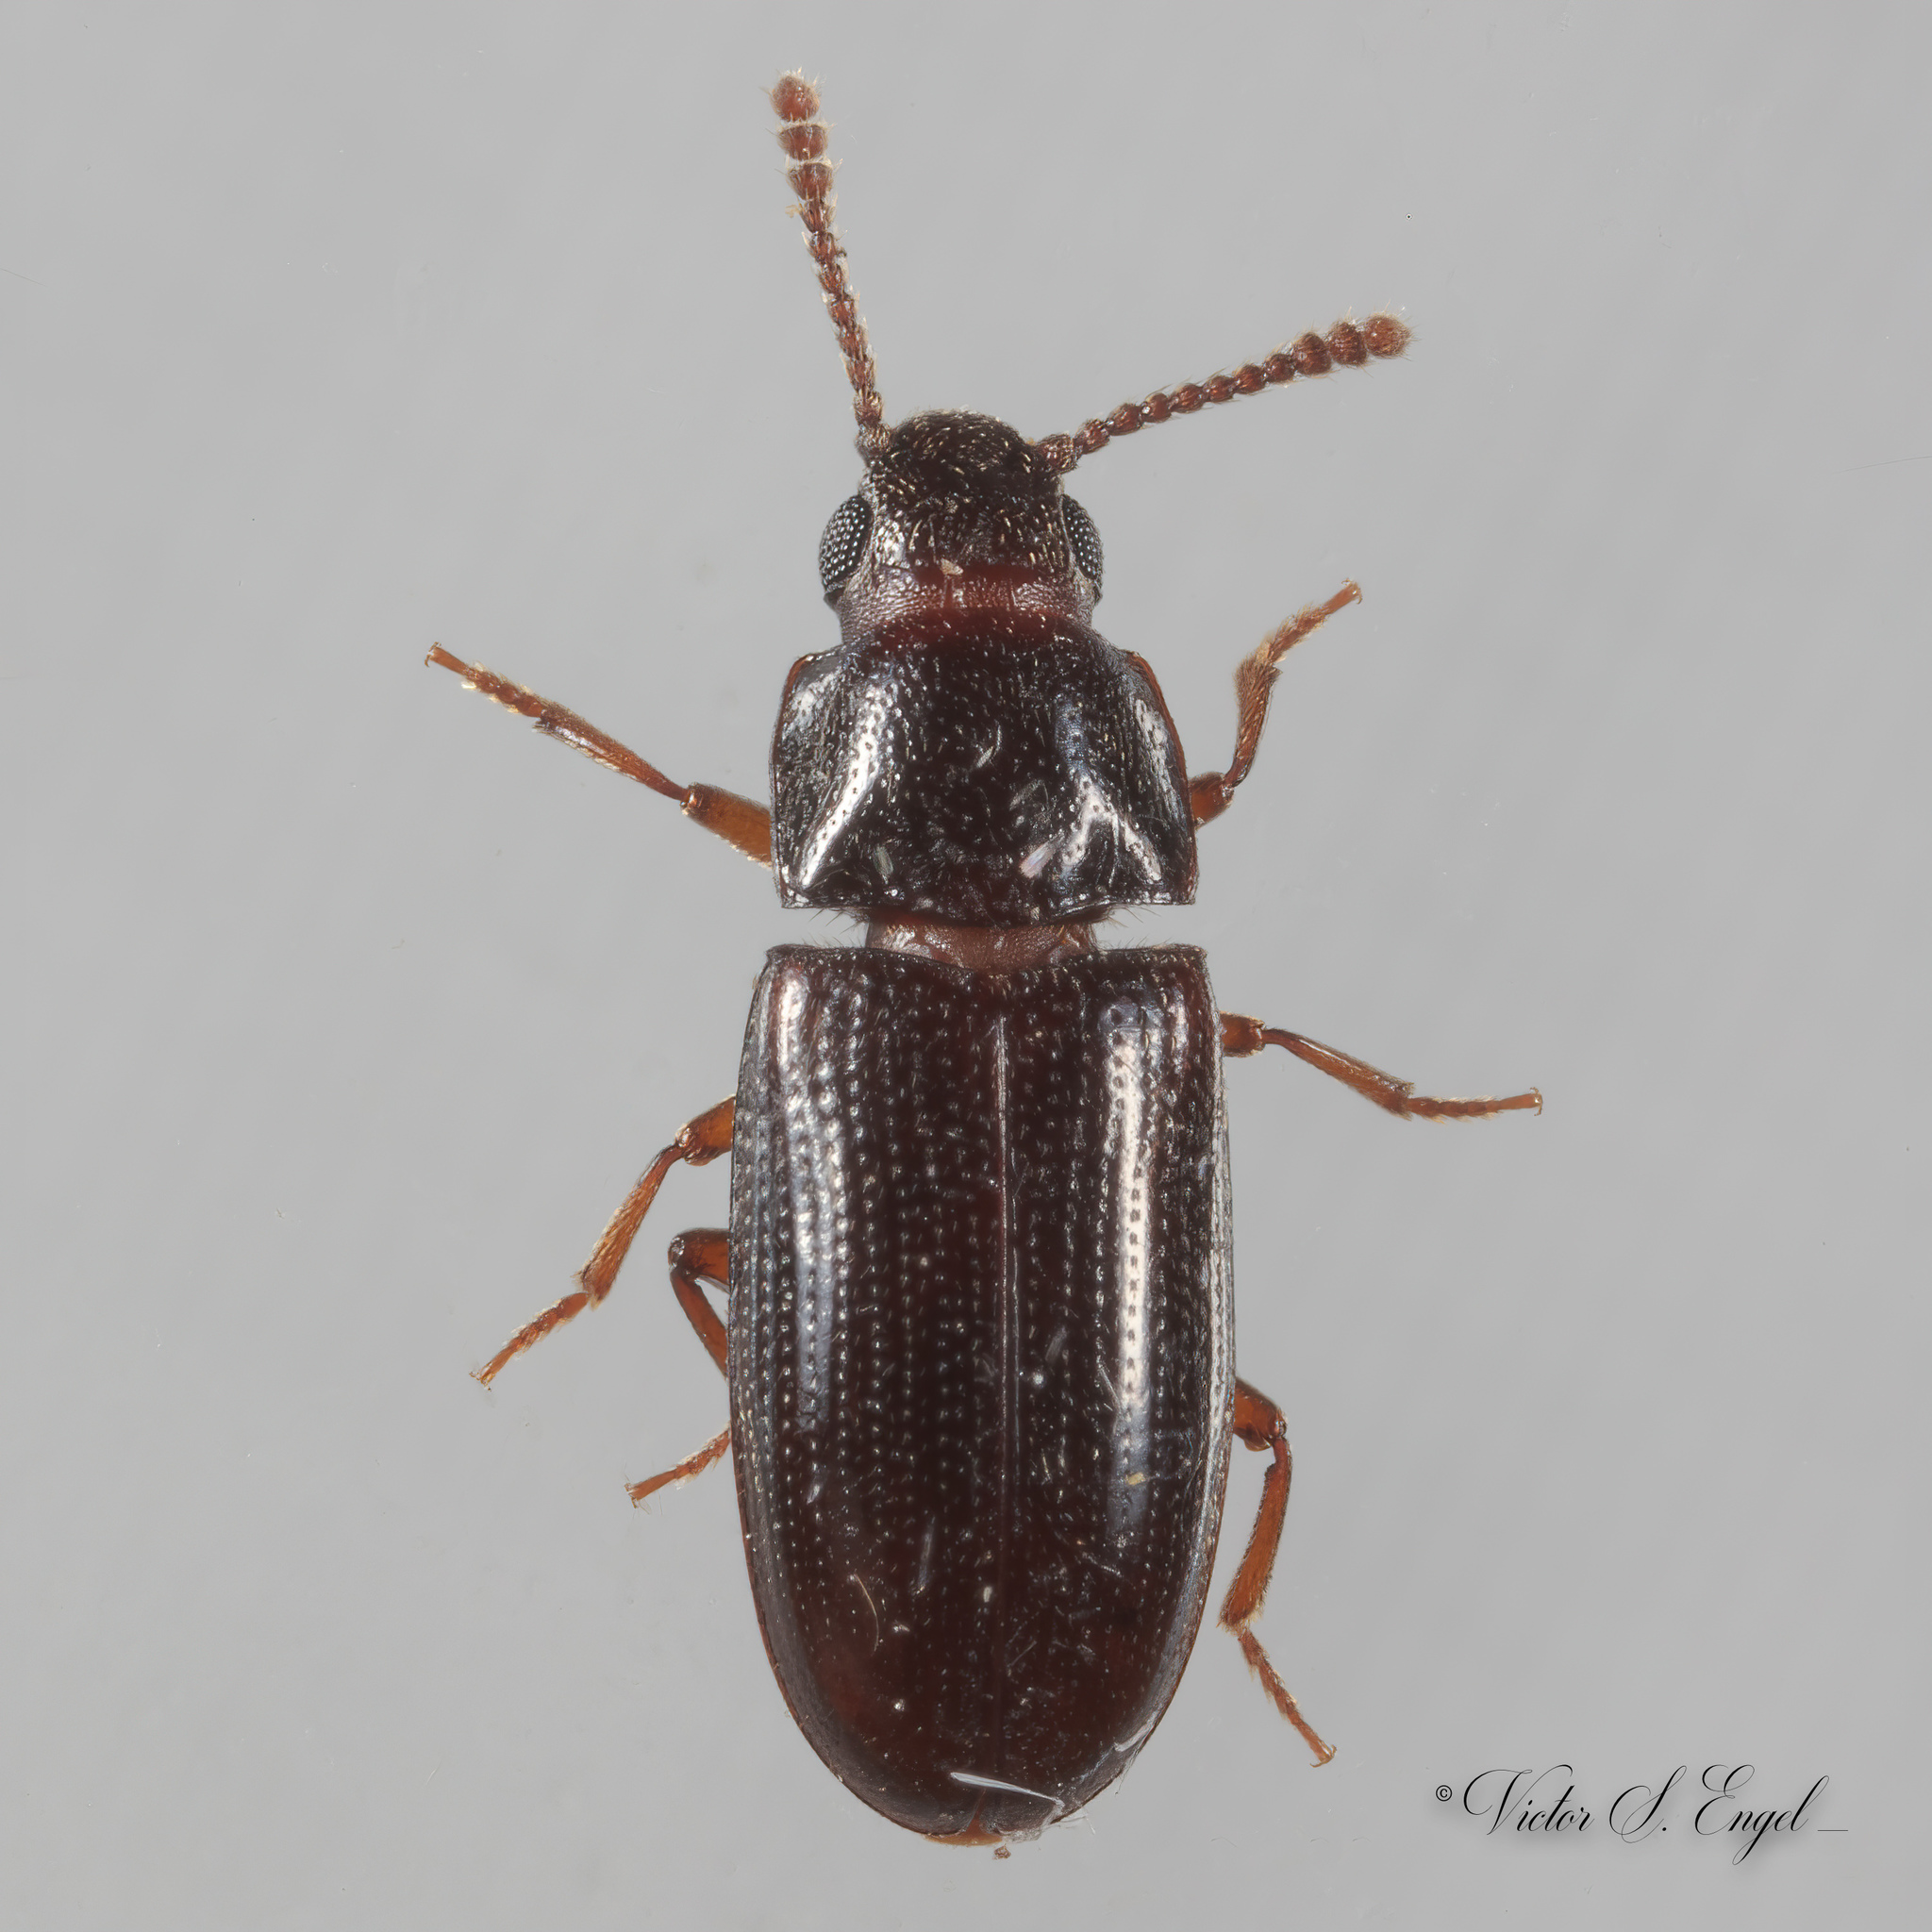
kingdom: Animalia
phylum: Arthropoda
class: Insecta
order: Coleoptera
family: Erotylidae
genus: Pharaxonotha
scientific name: Pharaxonotha kirschii
